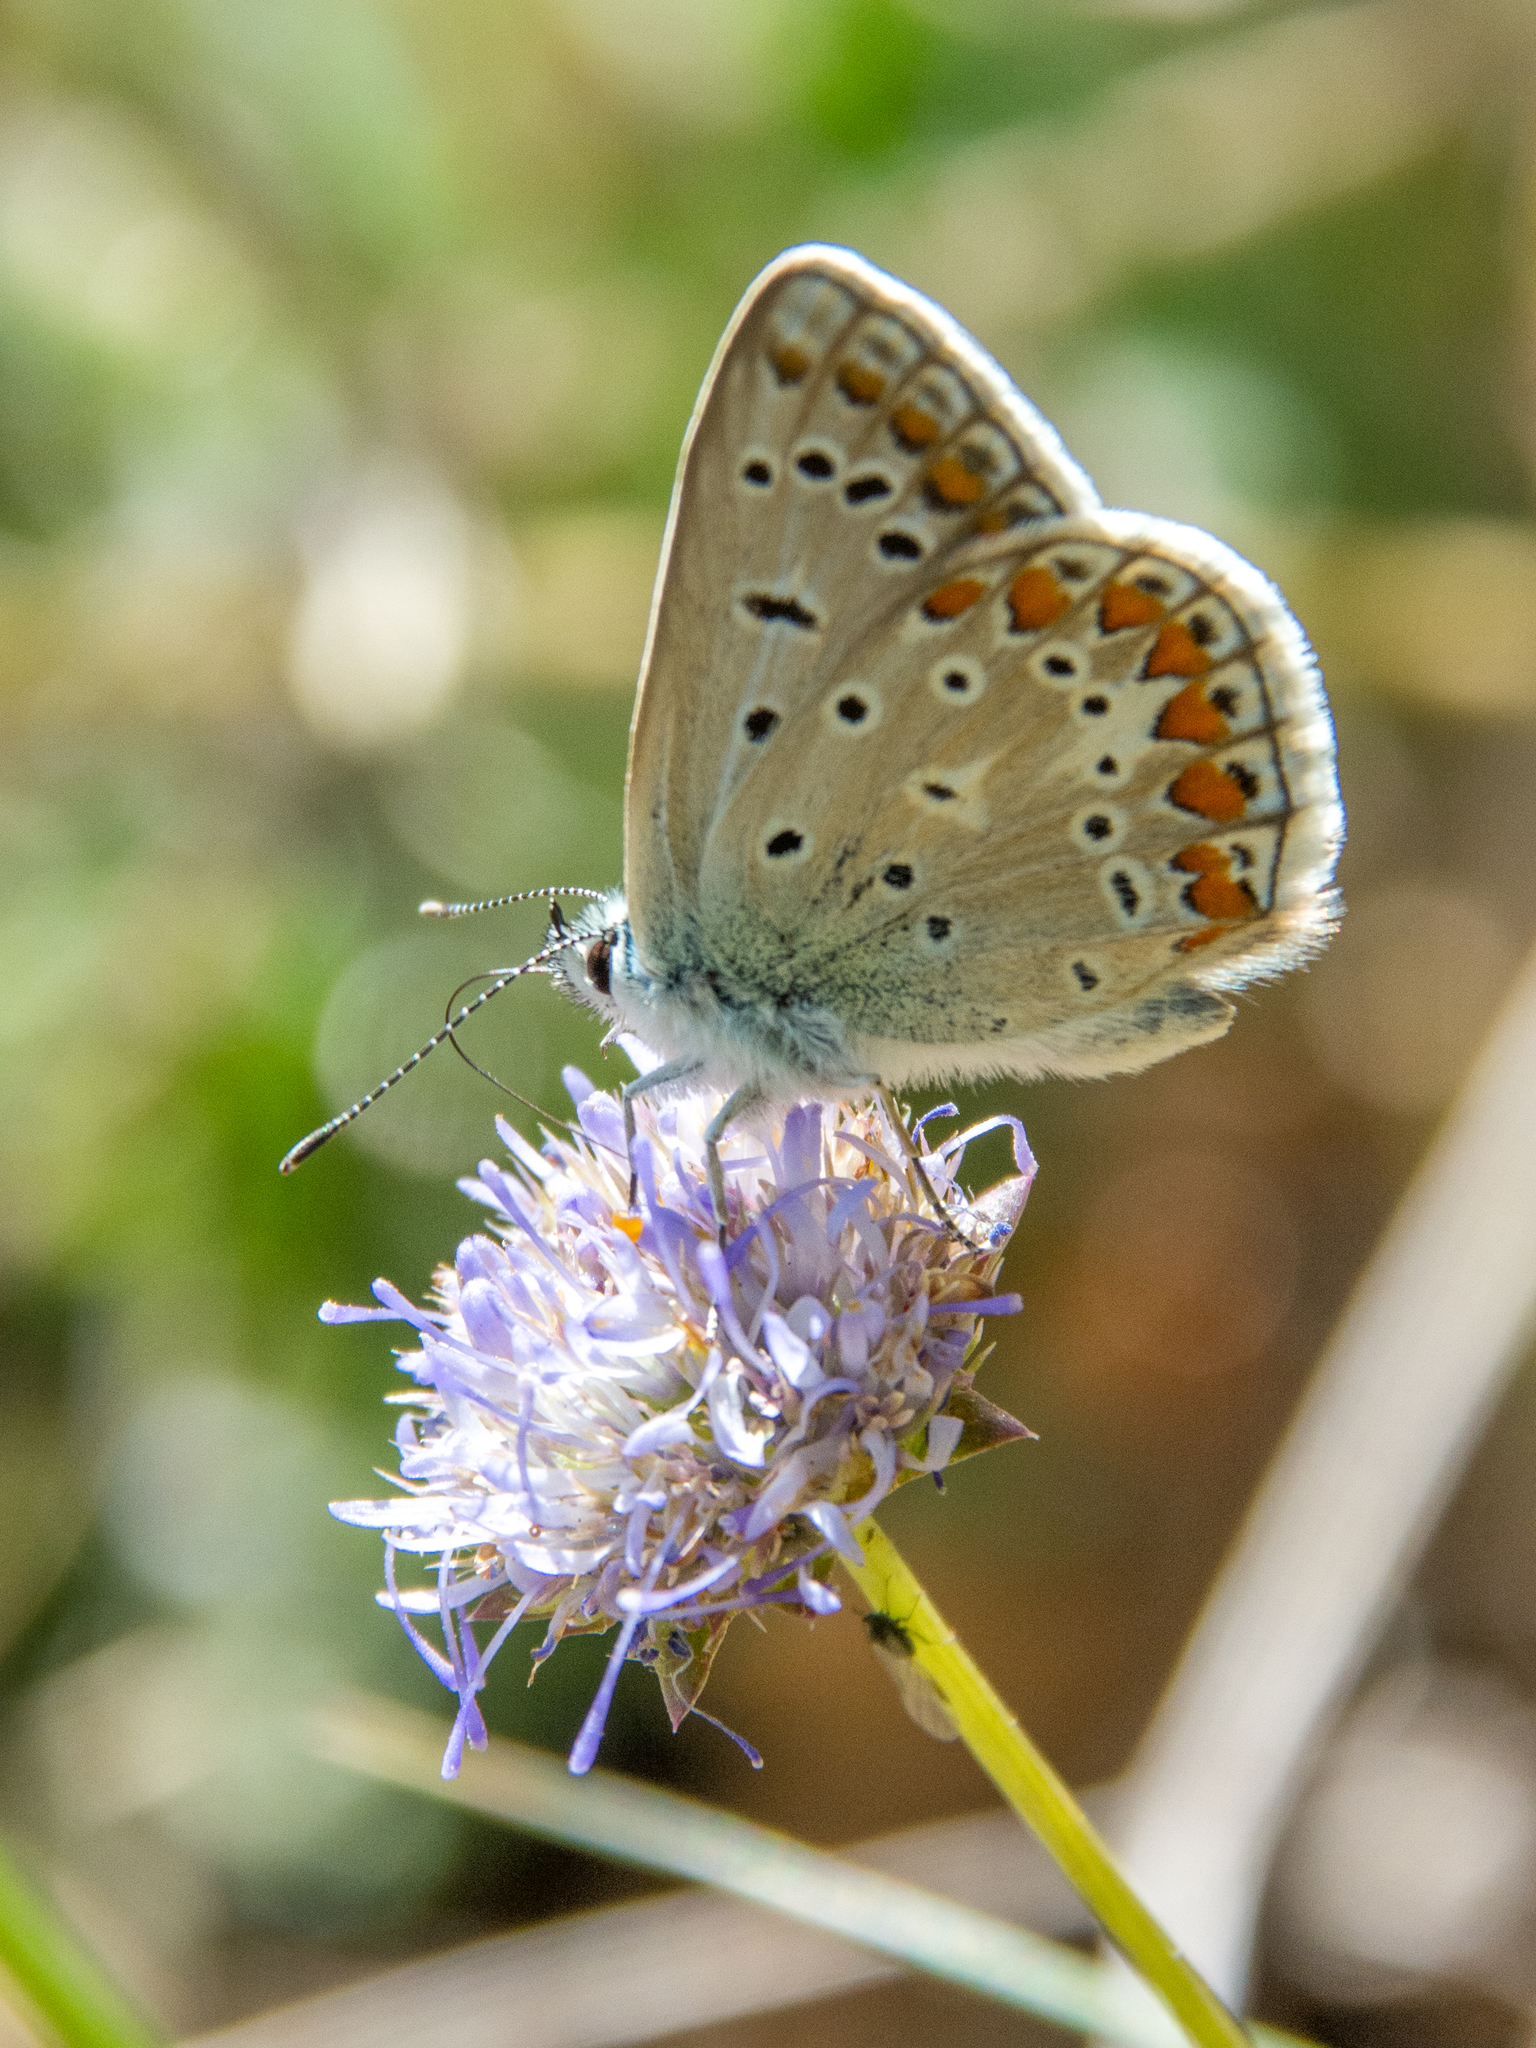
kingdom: Animalia
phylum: Arthropoda
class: Insecta
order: Lepidoptera
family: Lycaenidae
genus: Polyommatus
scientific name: Polyommatus celina
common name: Austaut's blue
